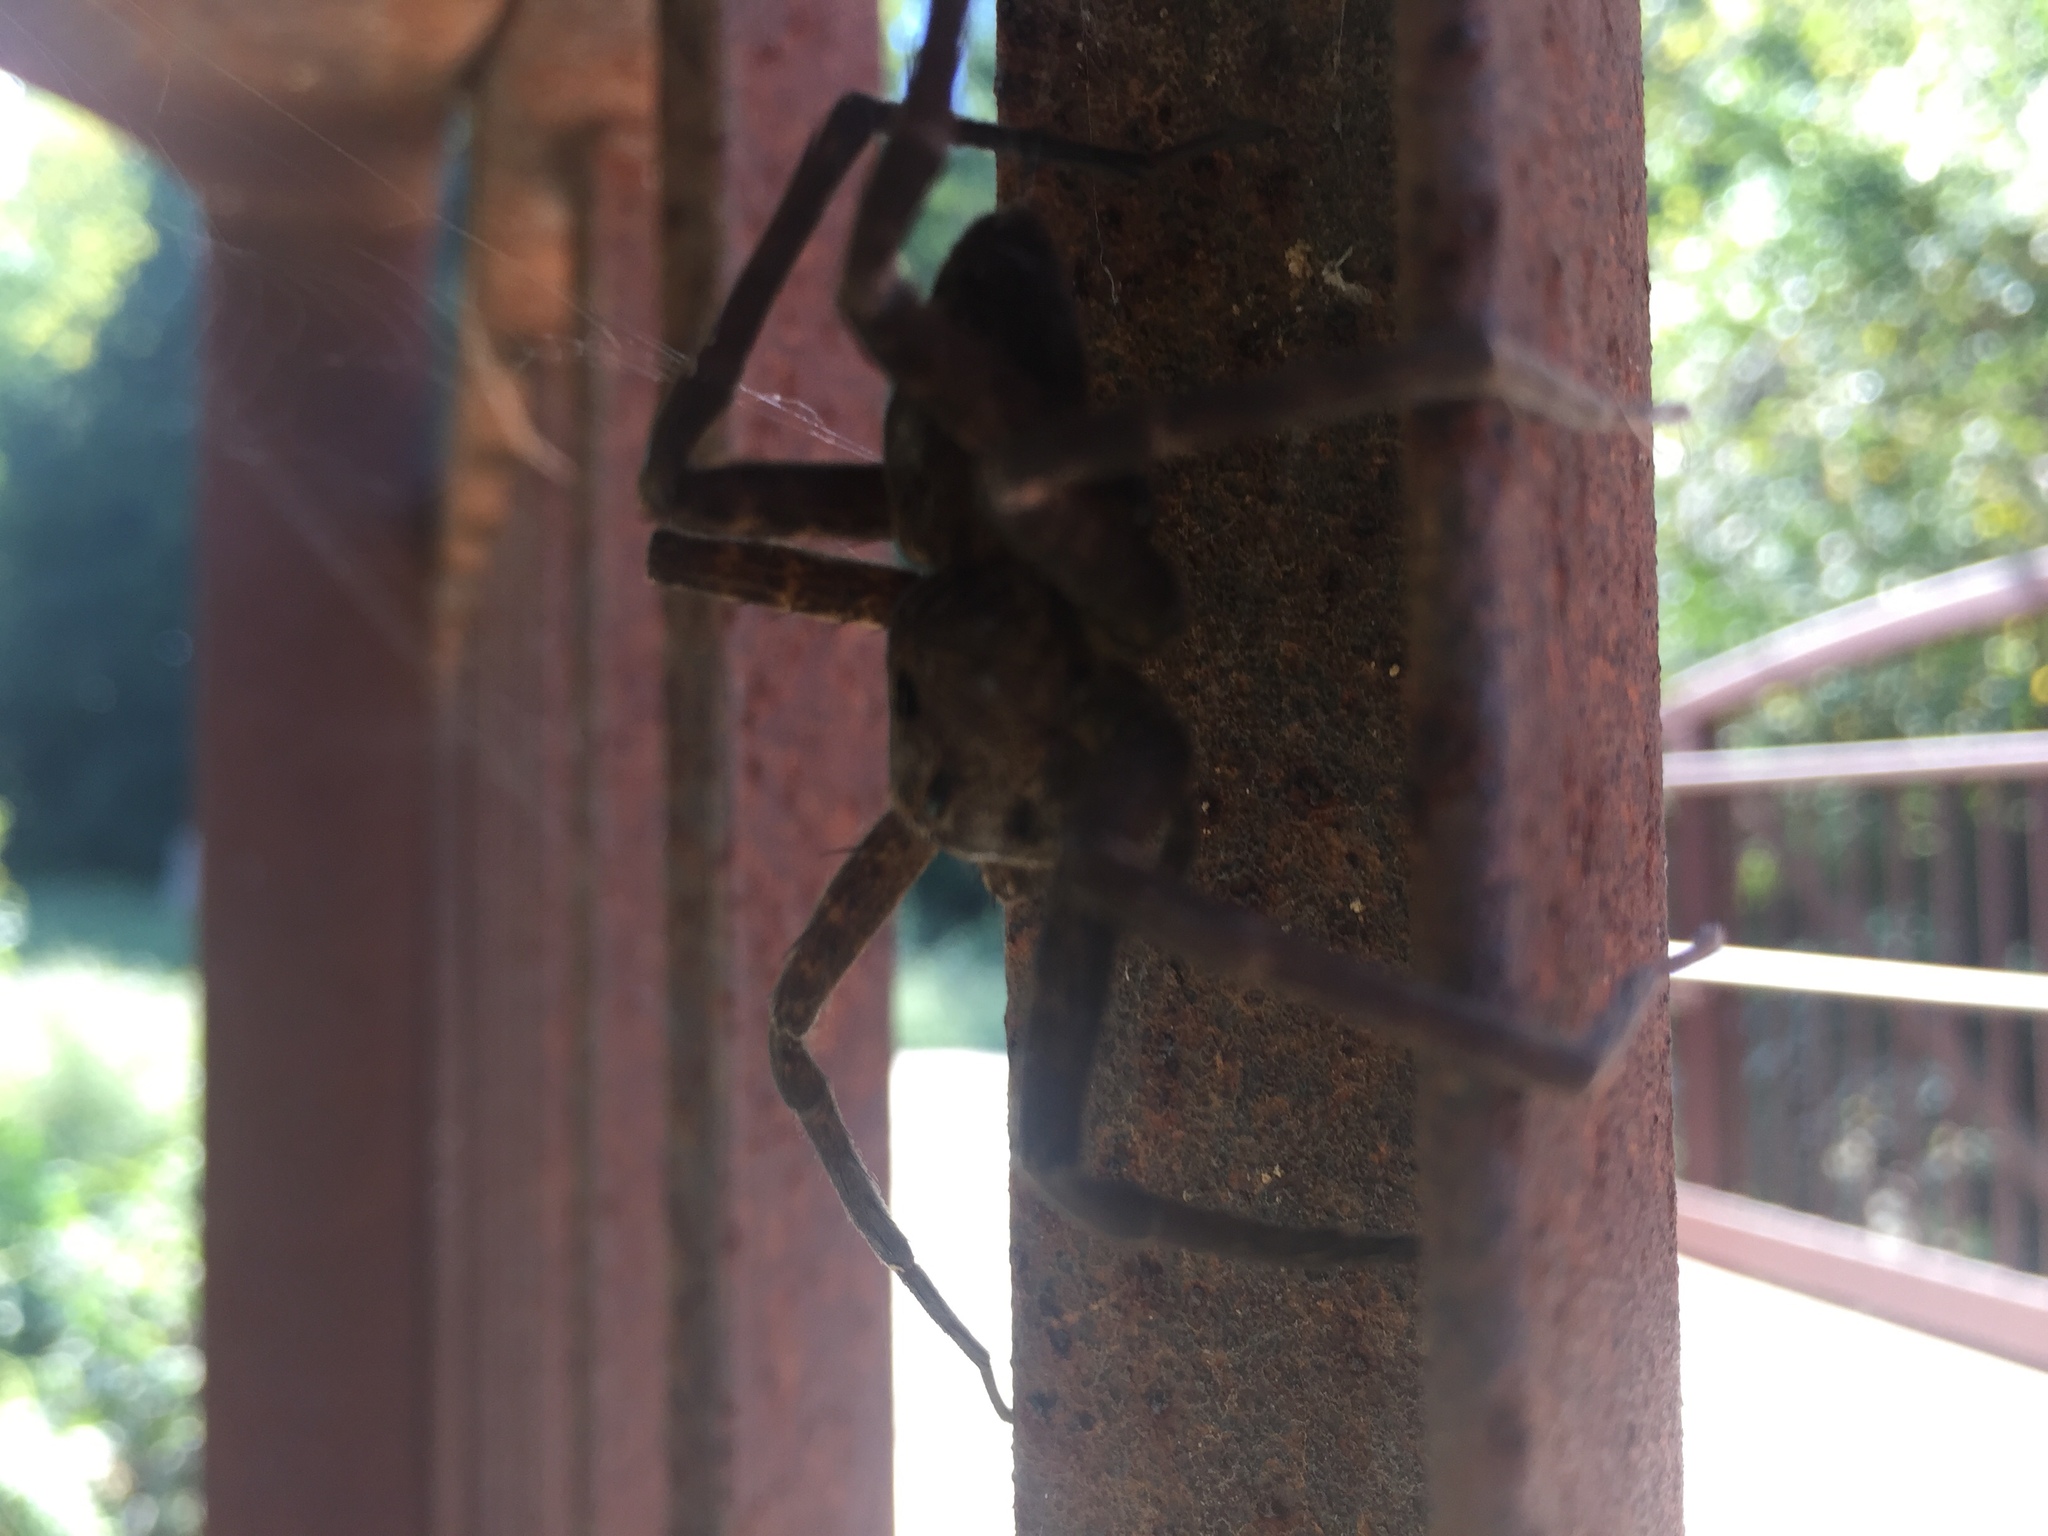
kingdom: Animalia
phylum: Arthropoda
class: Arachnida
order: Araneae
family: Pisauridae
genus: Dolomedes
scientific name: Dolomedes vittatus
